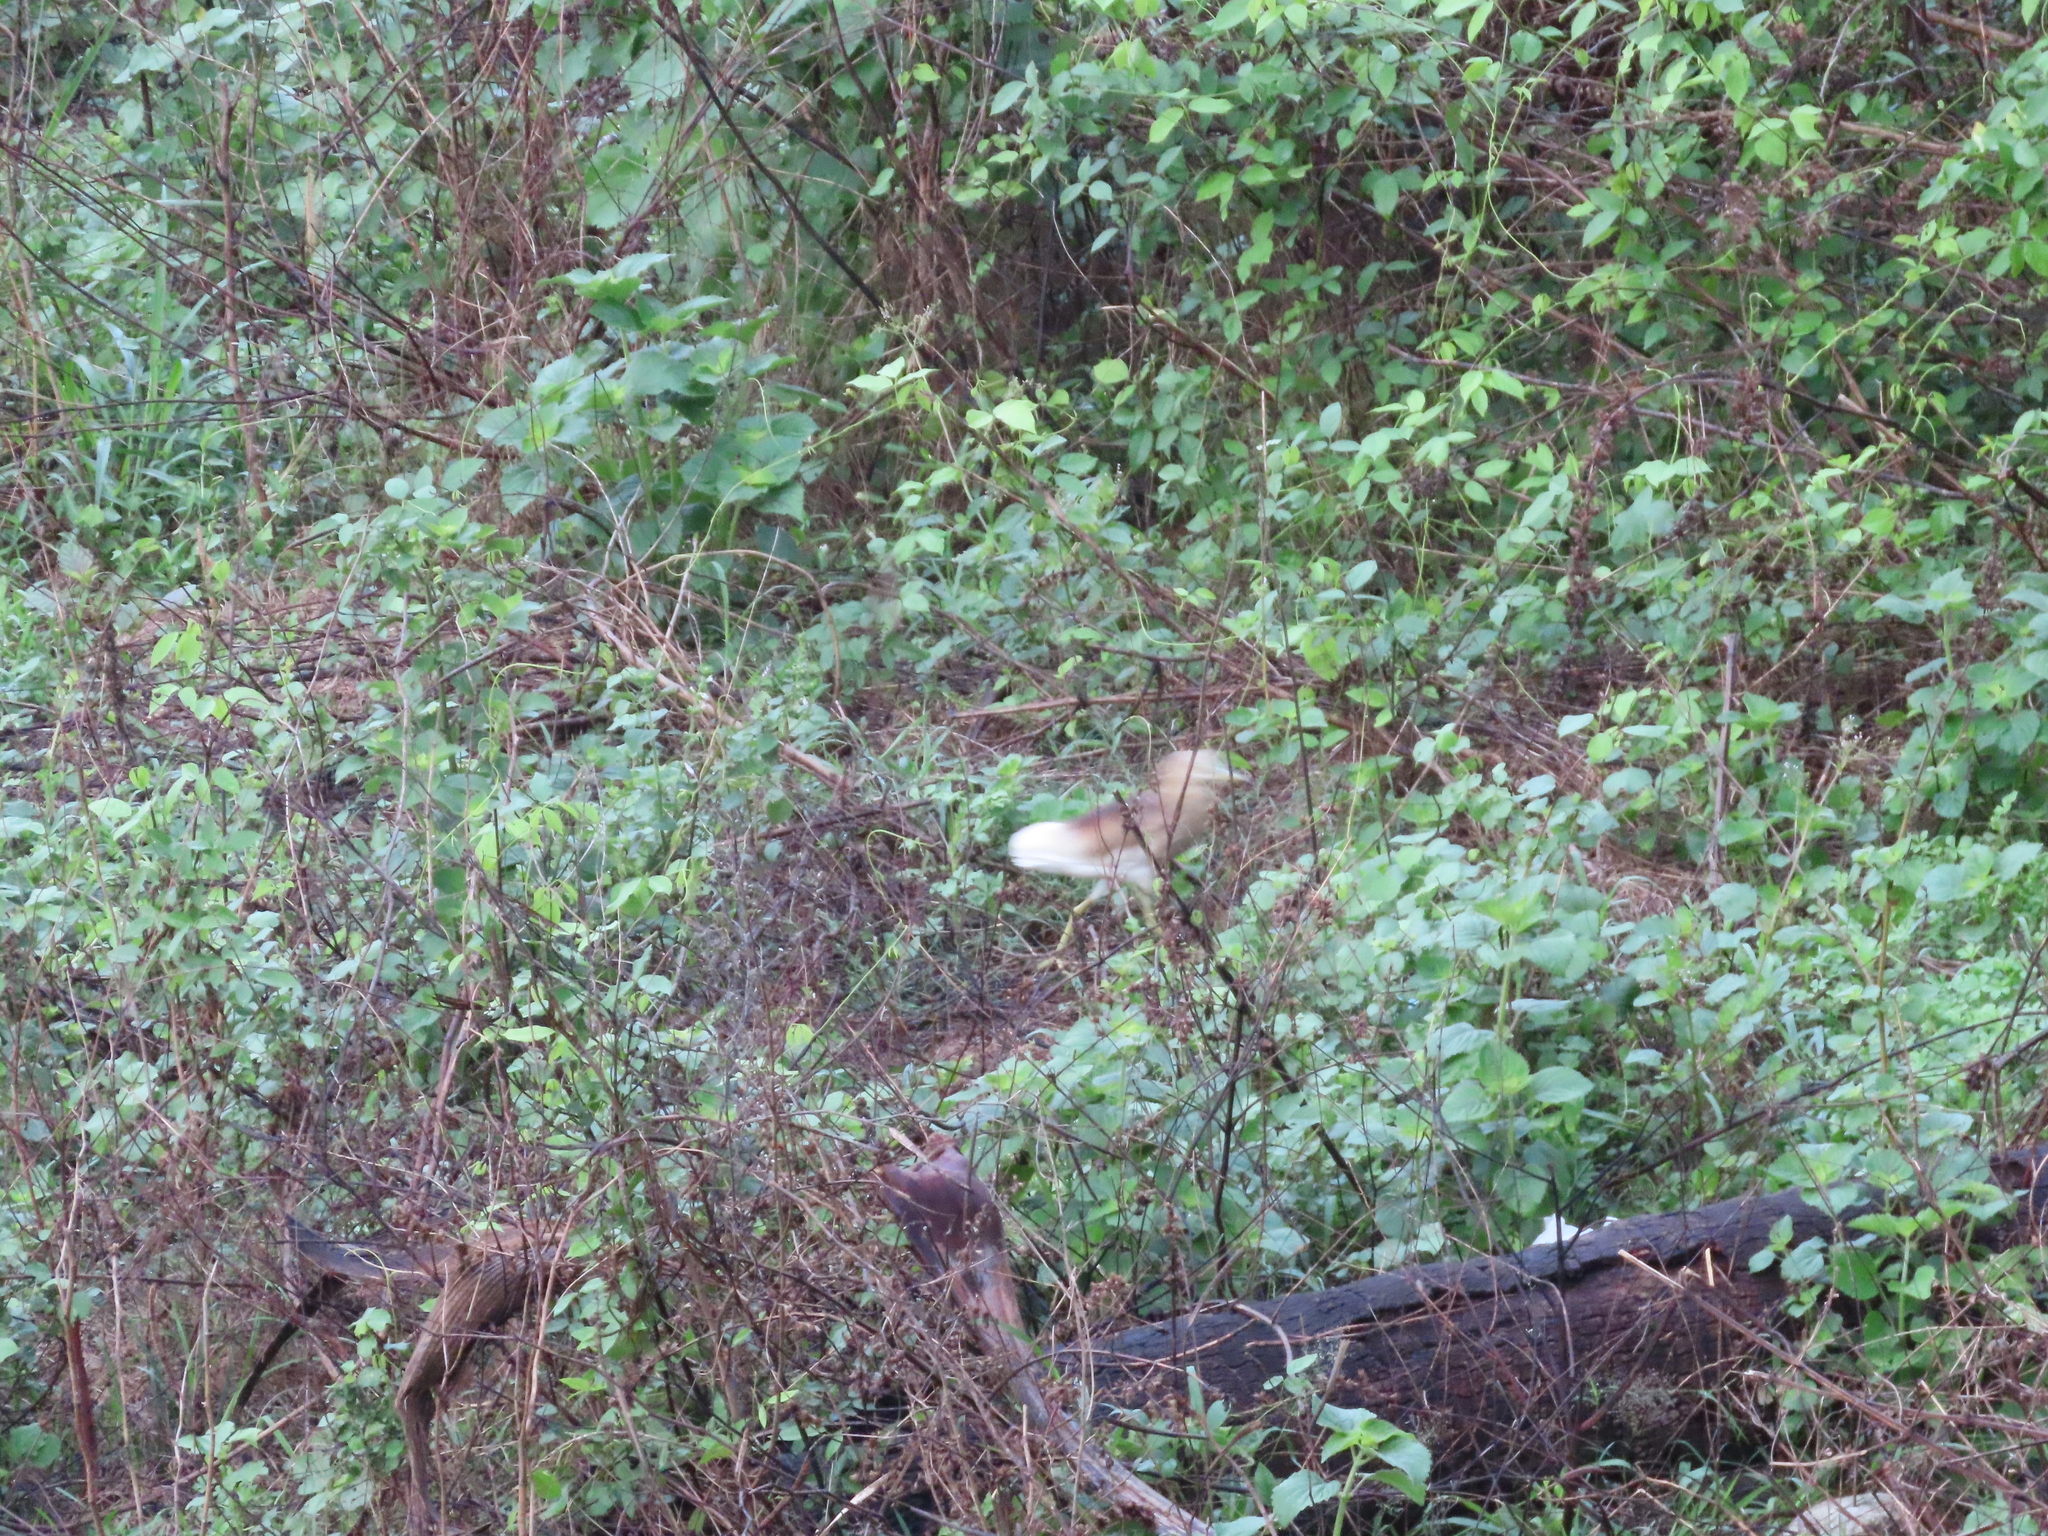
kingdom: Animalia
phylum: Chordata
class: Aves
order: Pelecaniformes
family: Ardeidae
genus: Ardeola
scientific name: Ardeola grayii
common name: Indian pond heron
